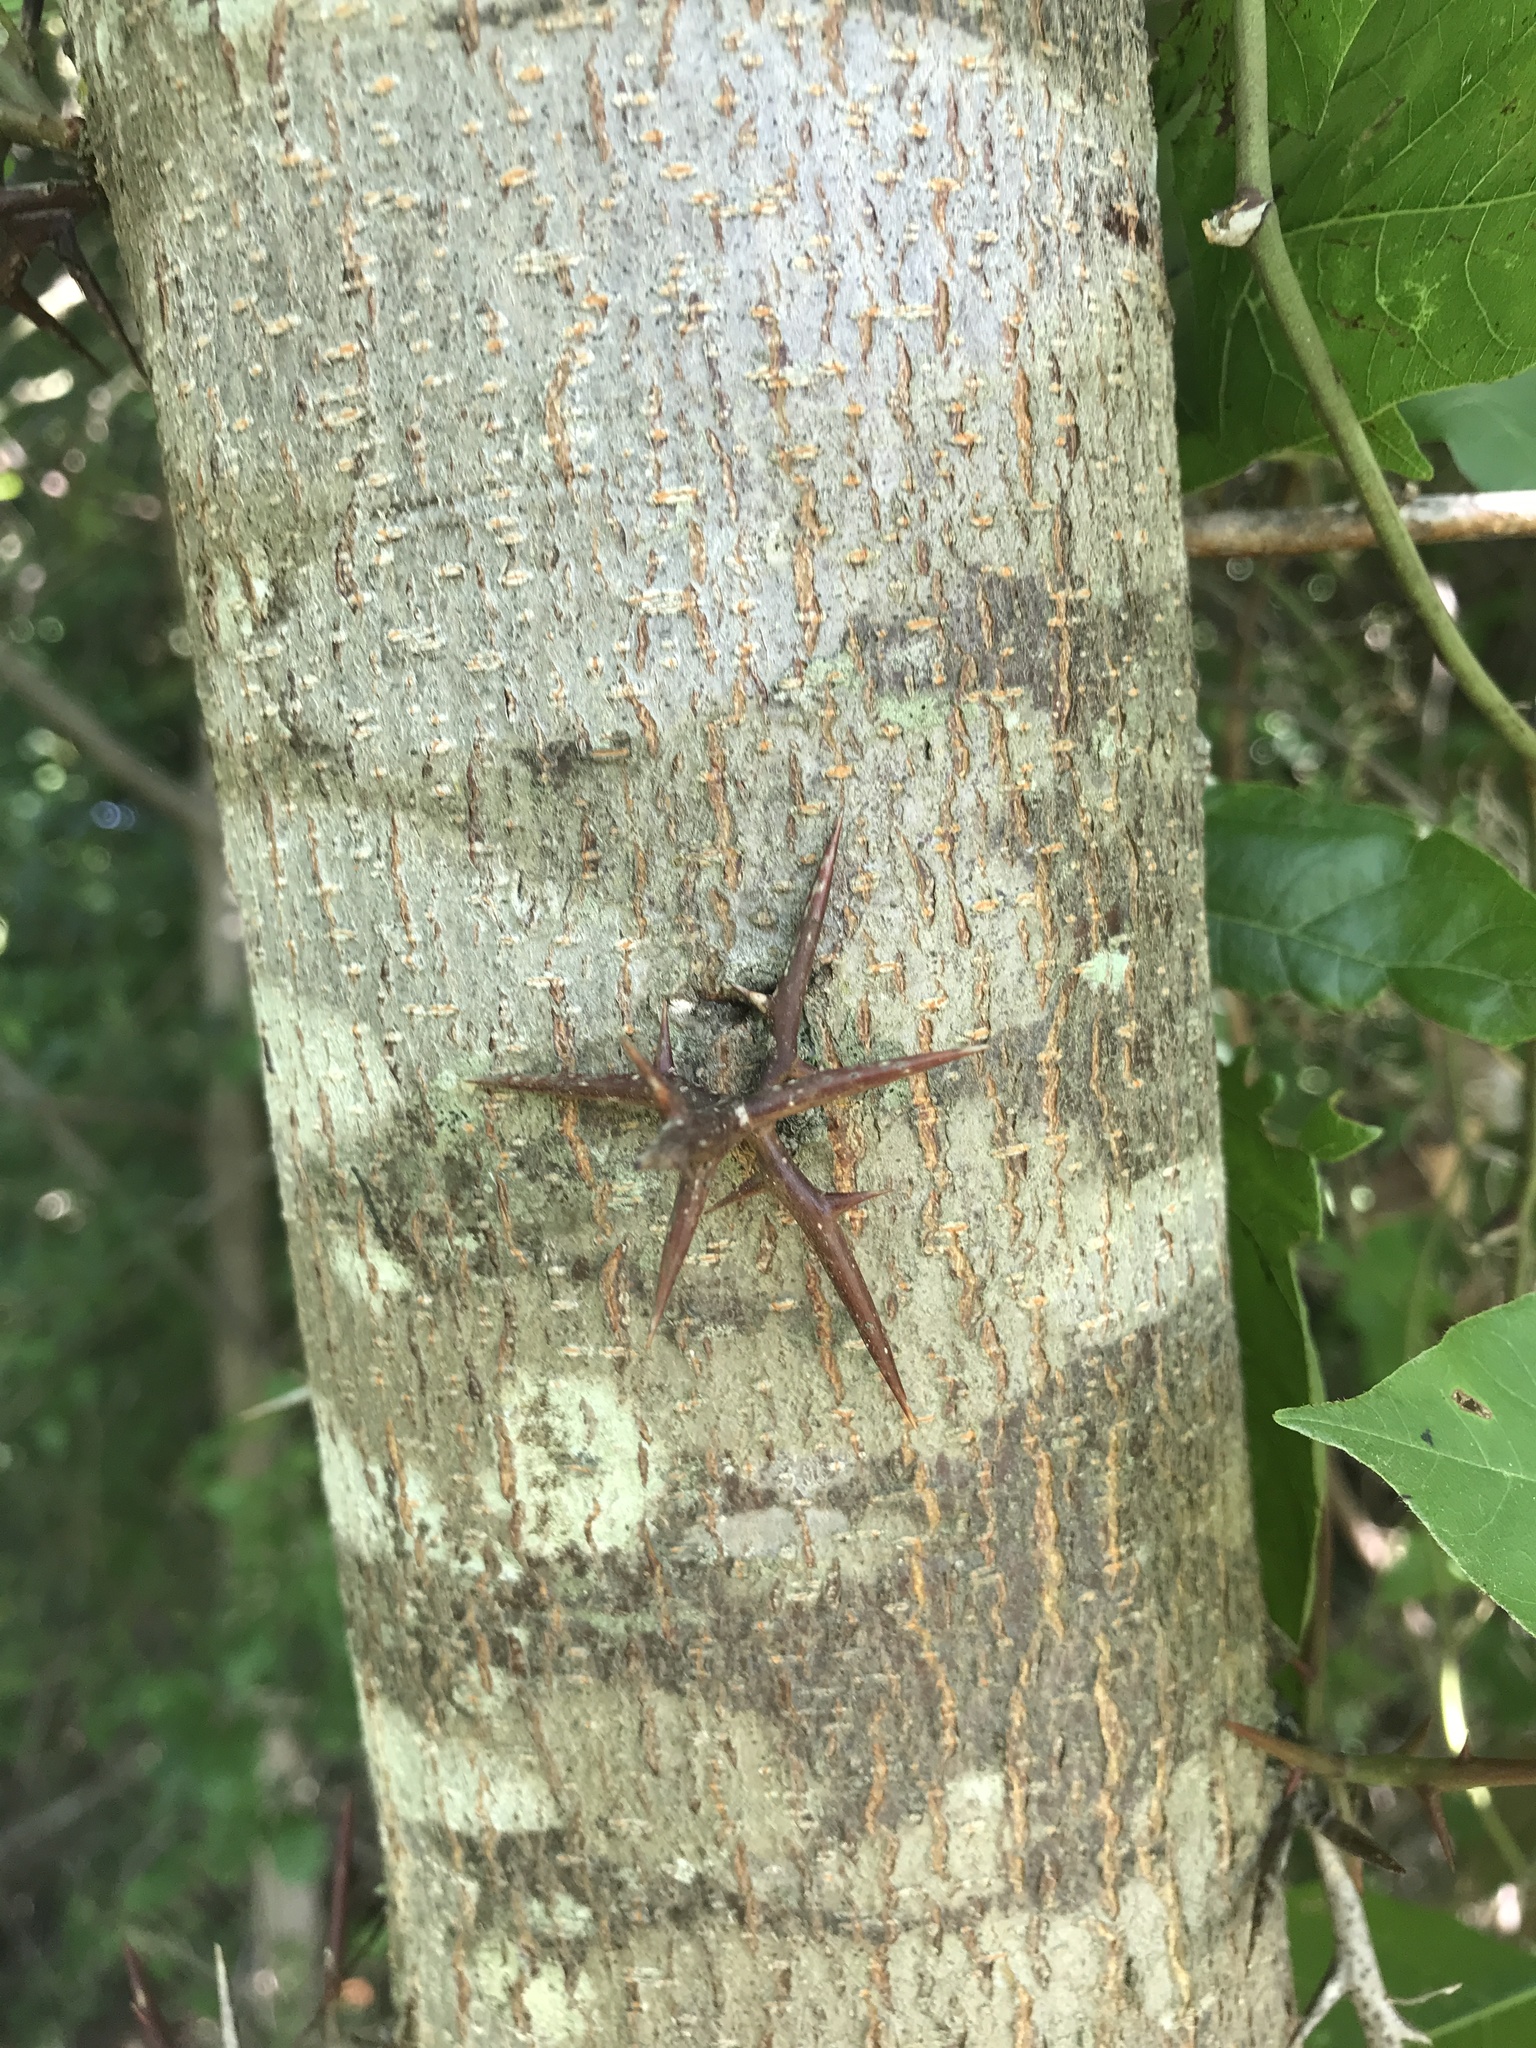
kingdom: Plantae
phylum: Tracheophyta
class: Magnoliopsida
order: Fabales
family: Fabaceae
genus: Gleditsia
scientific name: Gleditsia triacanthos
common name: Common honeylocust
